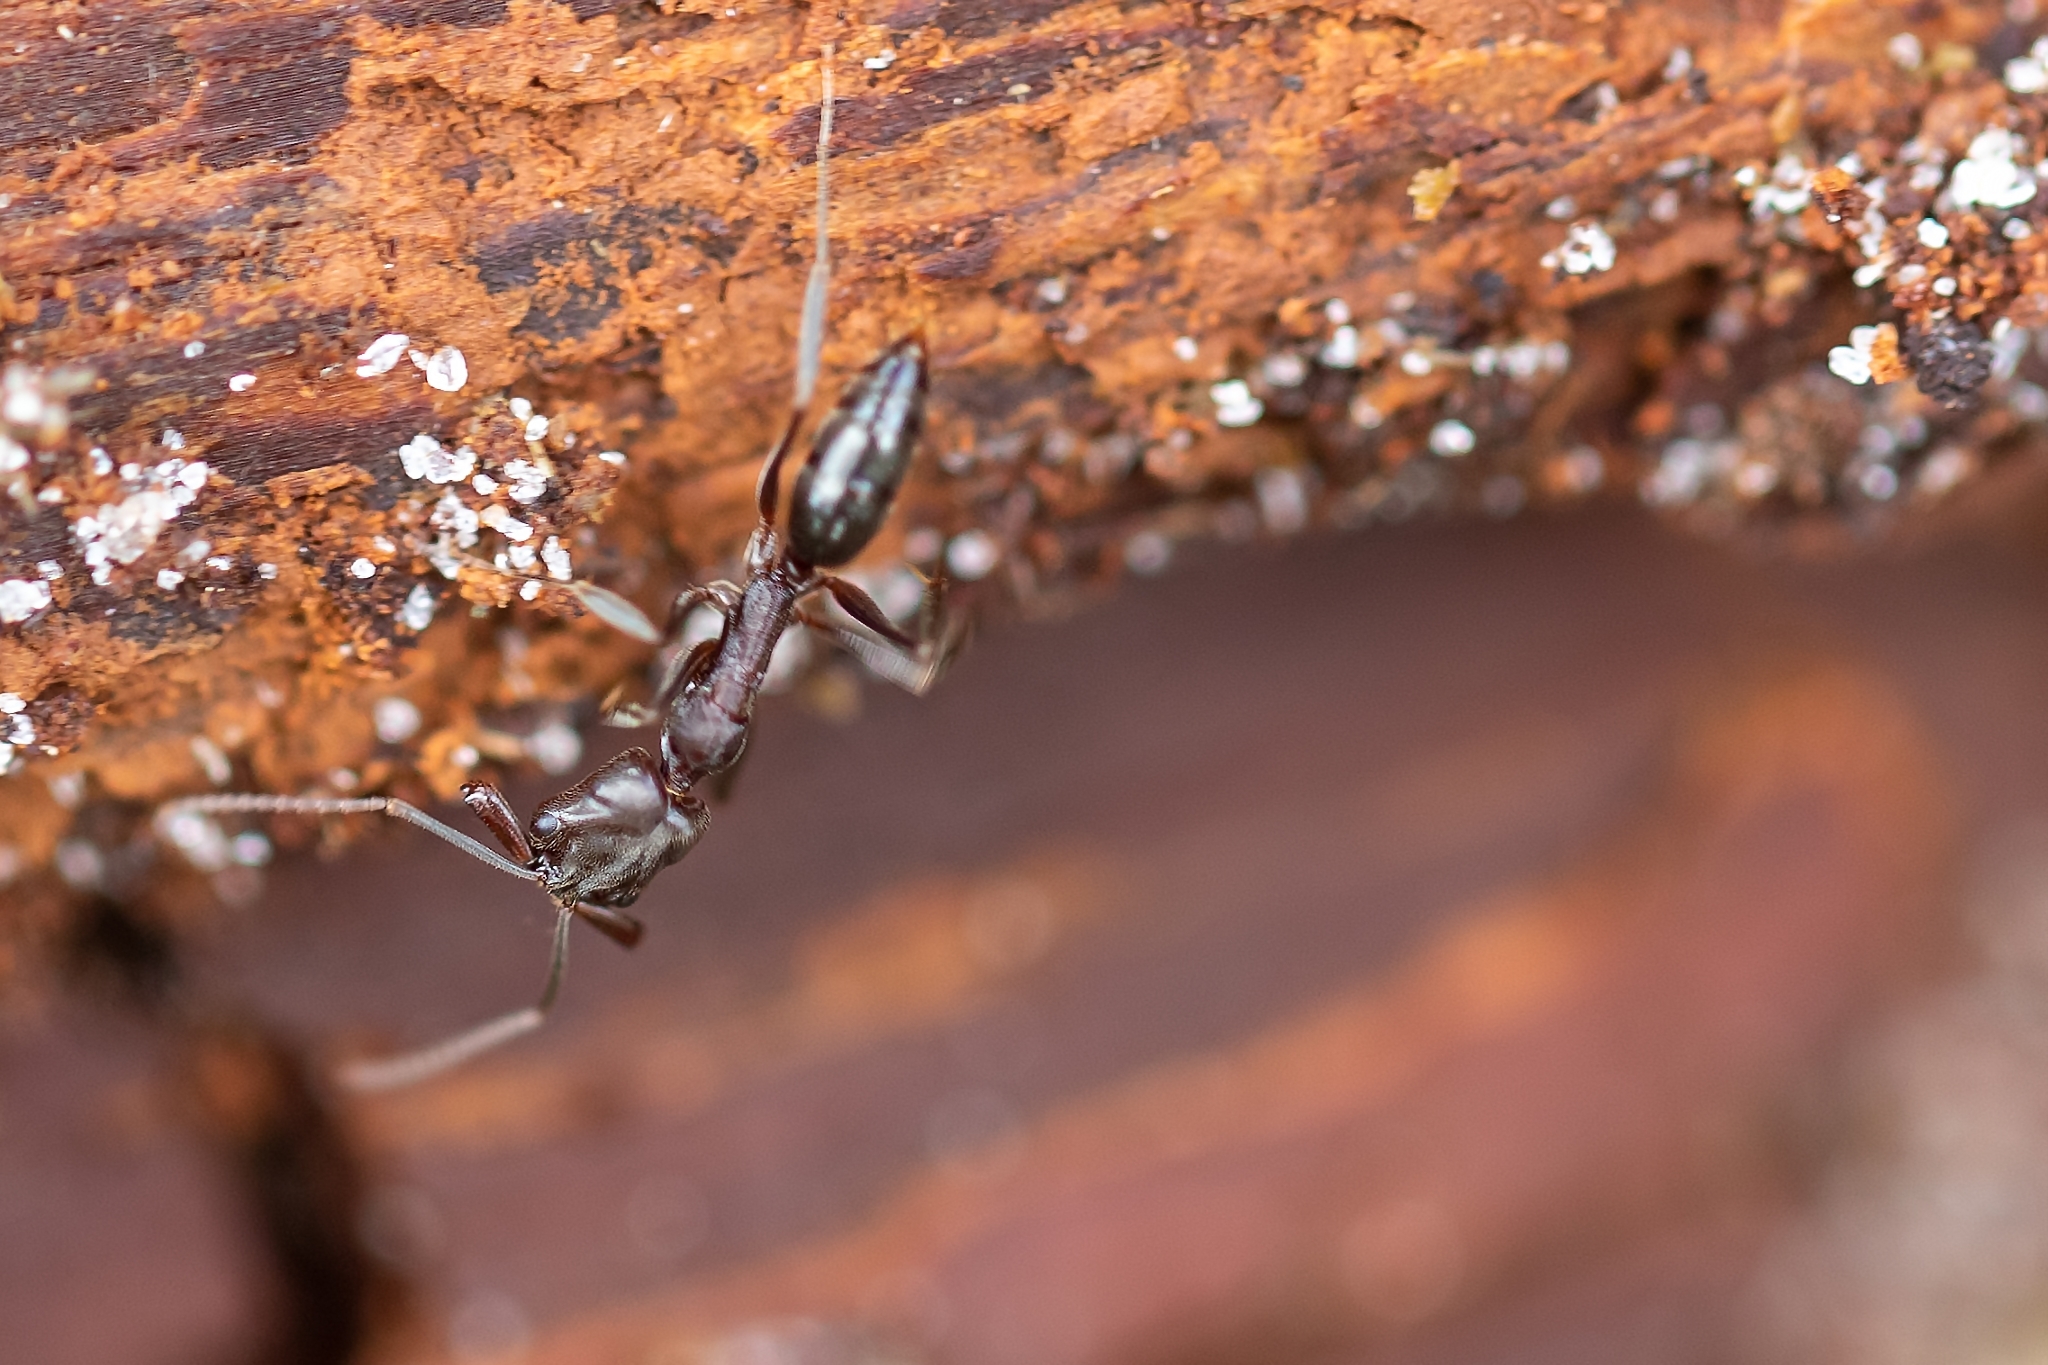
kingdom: Animalia
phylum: Arthropoda
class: Insecta
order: Hymenoptera
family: Formicidae
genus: Odontomachus
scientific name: Odontomachus brunneus
